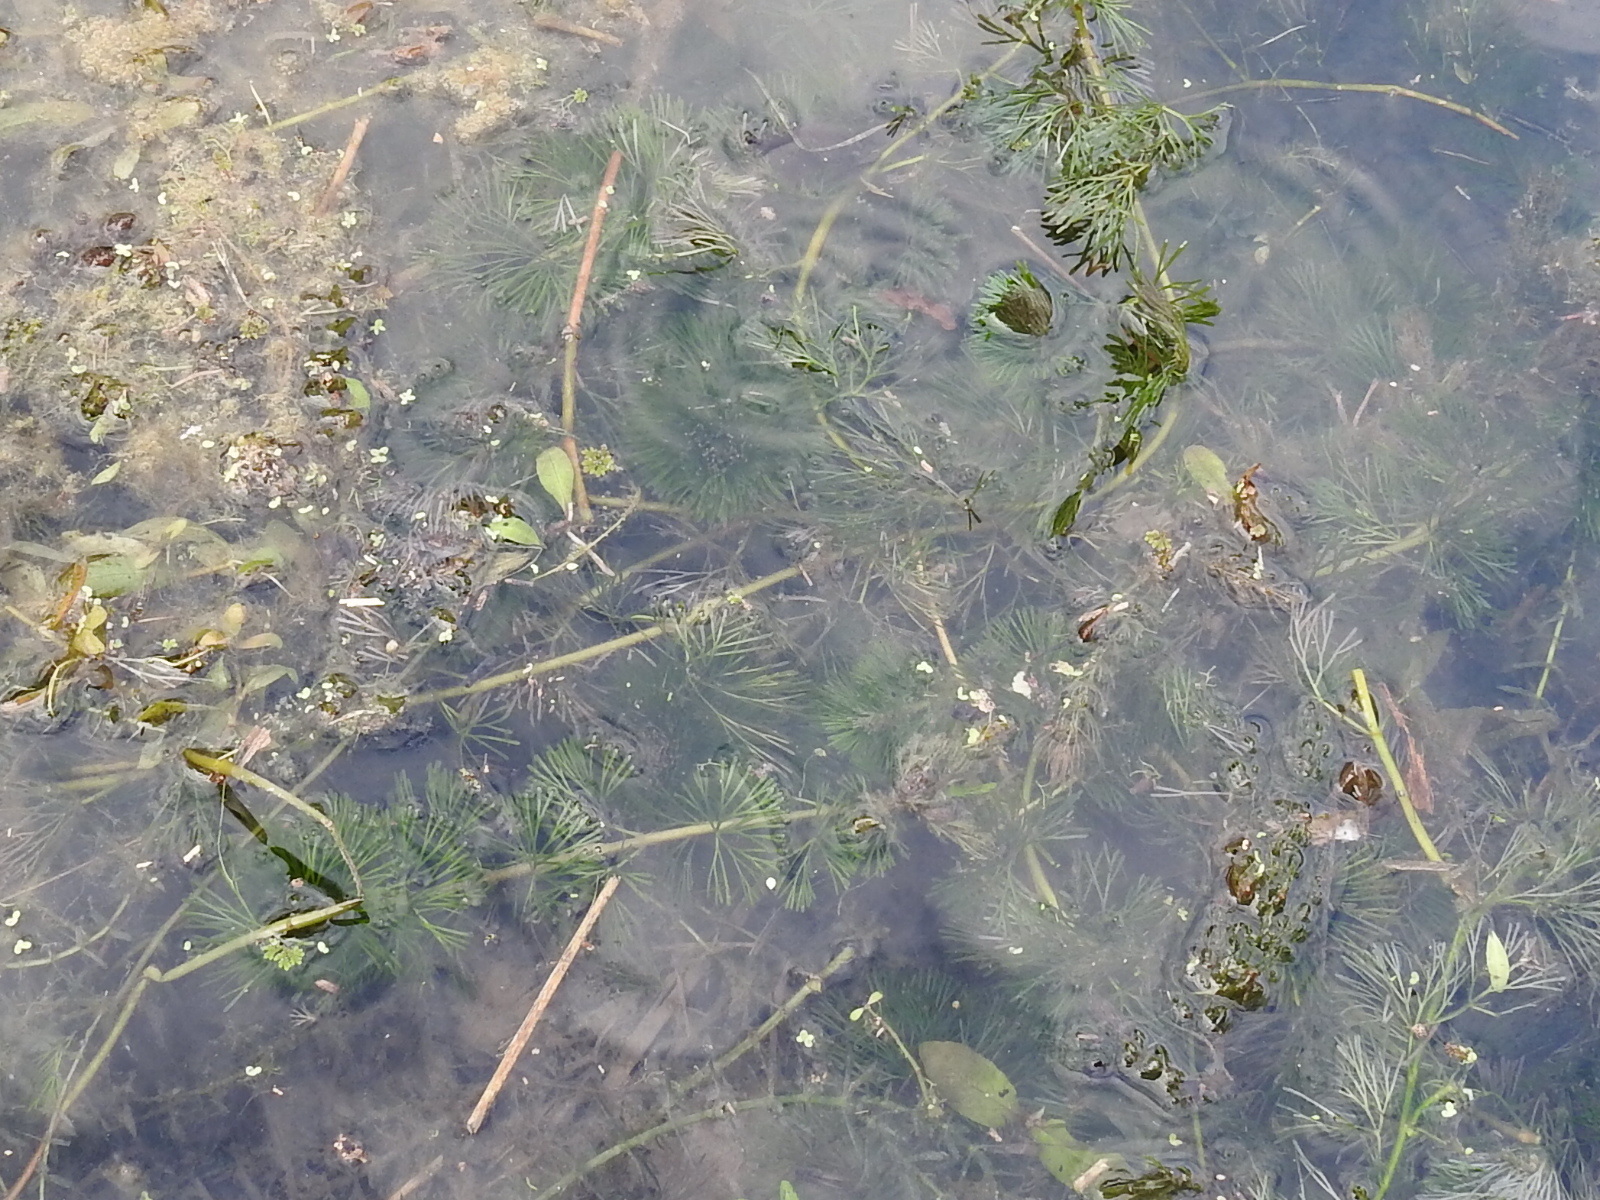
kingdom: Plantae
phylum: Tracheophyta
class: Magnoliopsida
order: Nymphaeales
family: Cabombaceae
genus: Cabomba
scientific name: Cabomba caroliniana
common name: Fanwort
